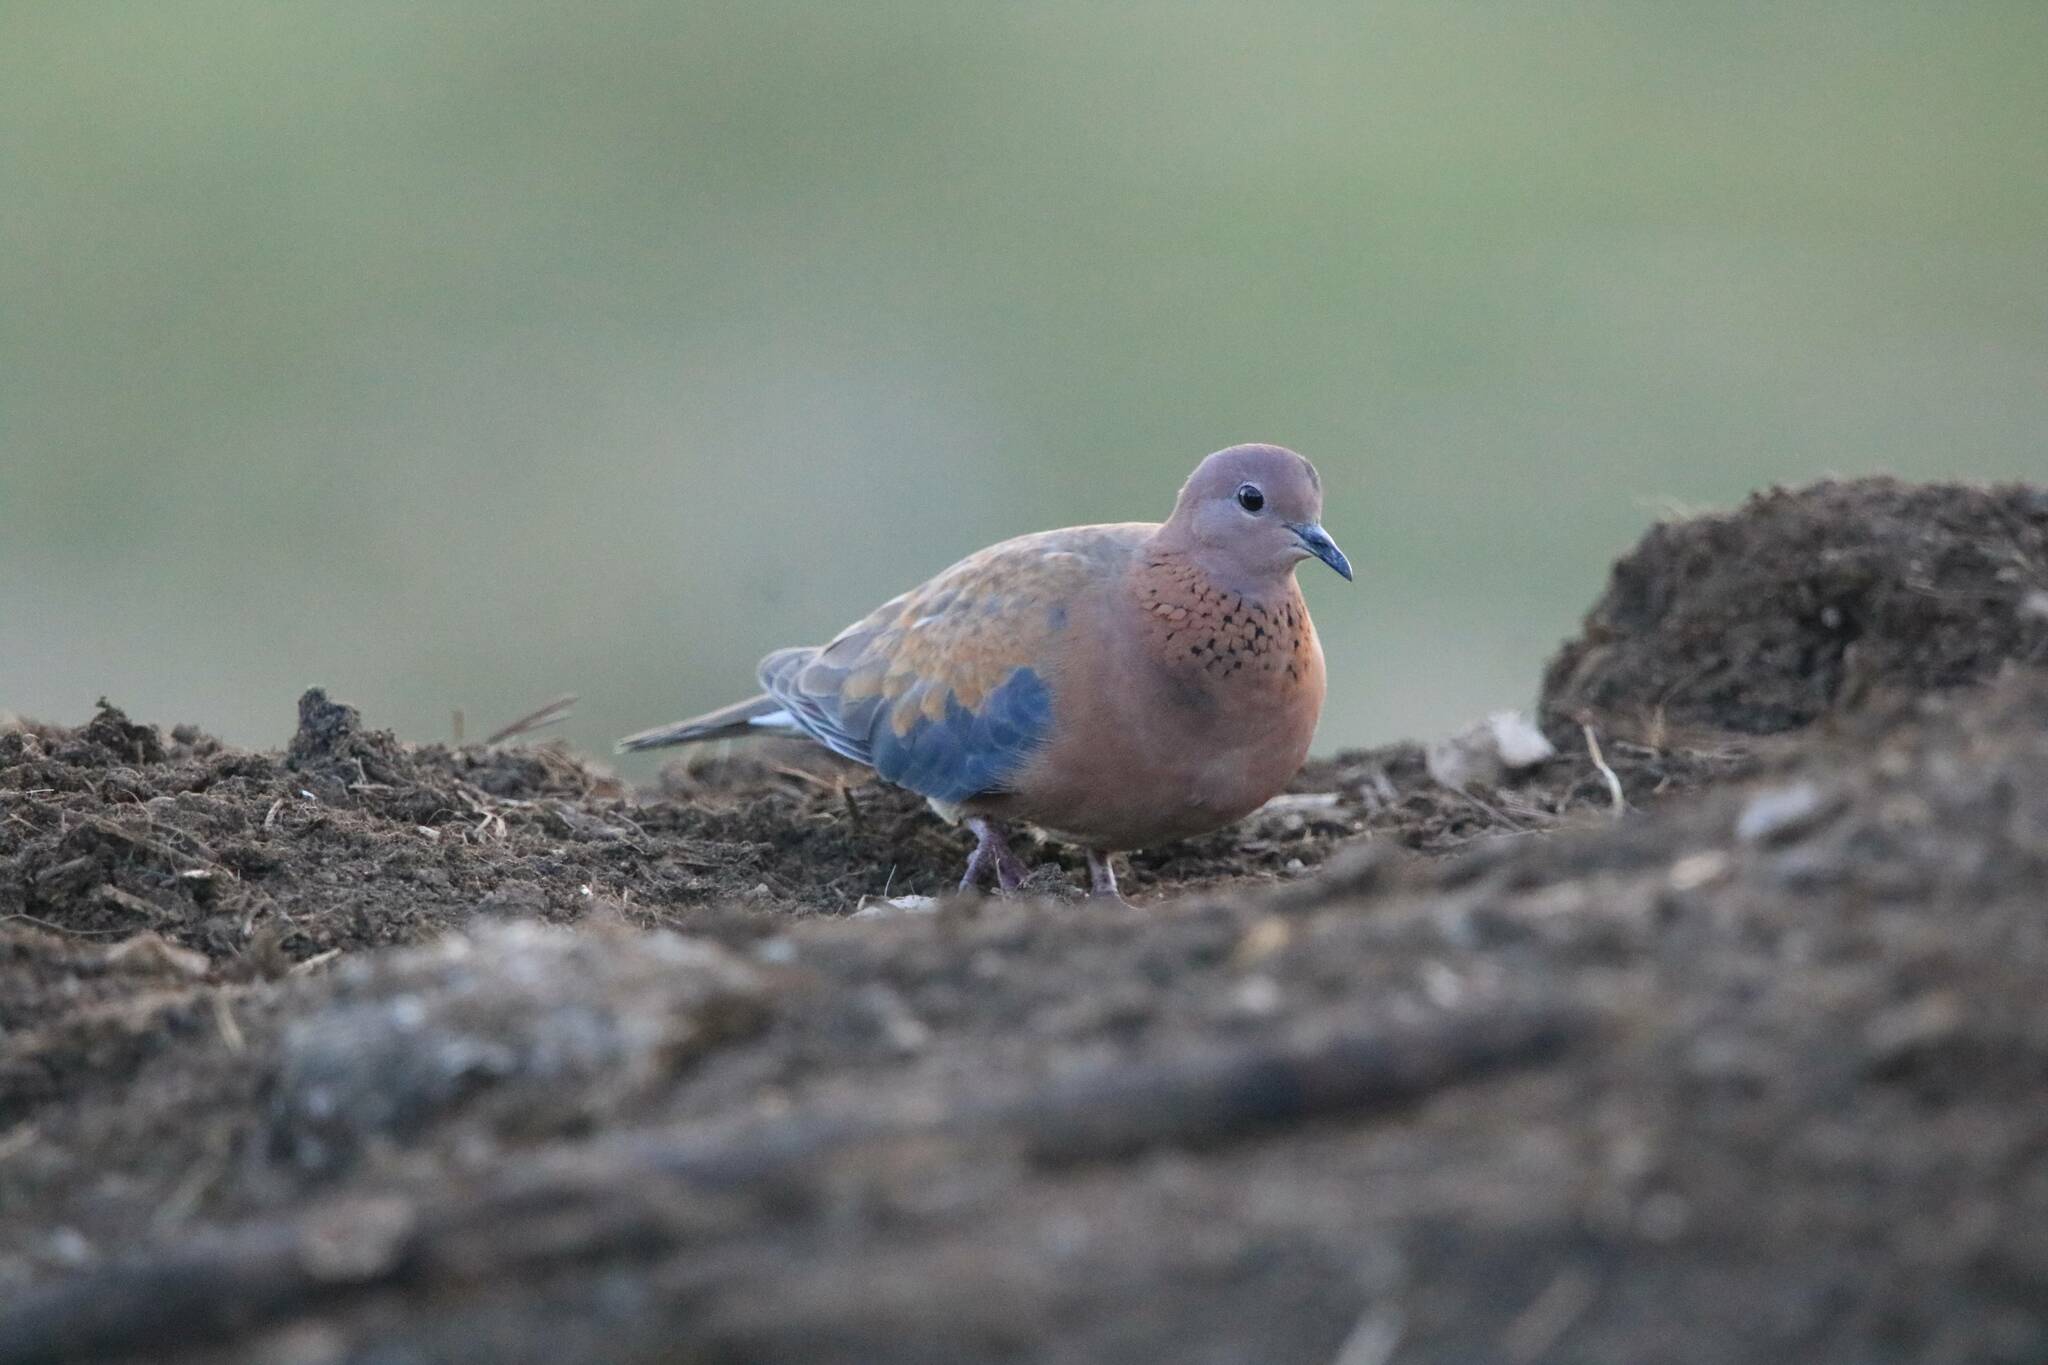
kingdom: Animalia
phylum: Chordata
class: Aves
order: Columbiformes
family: Columbidae
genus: Spilopelia
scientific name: Spilopelia senegalensis
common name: Laughing dove
